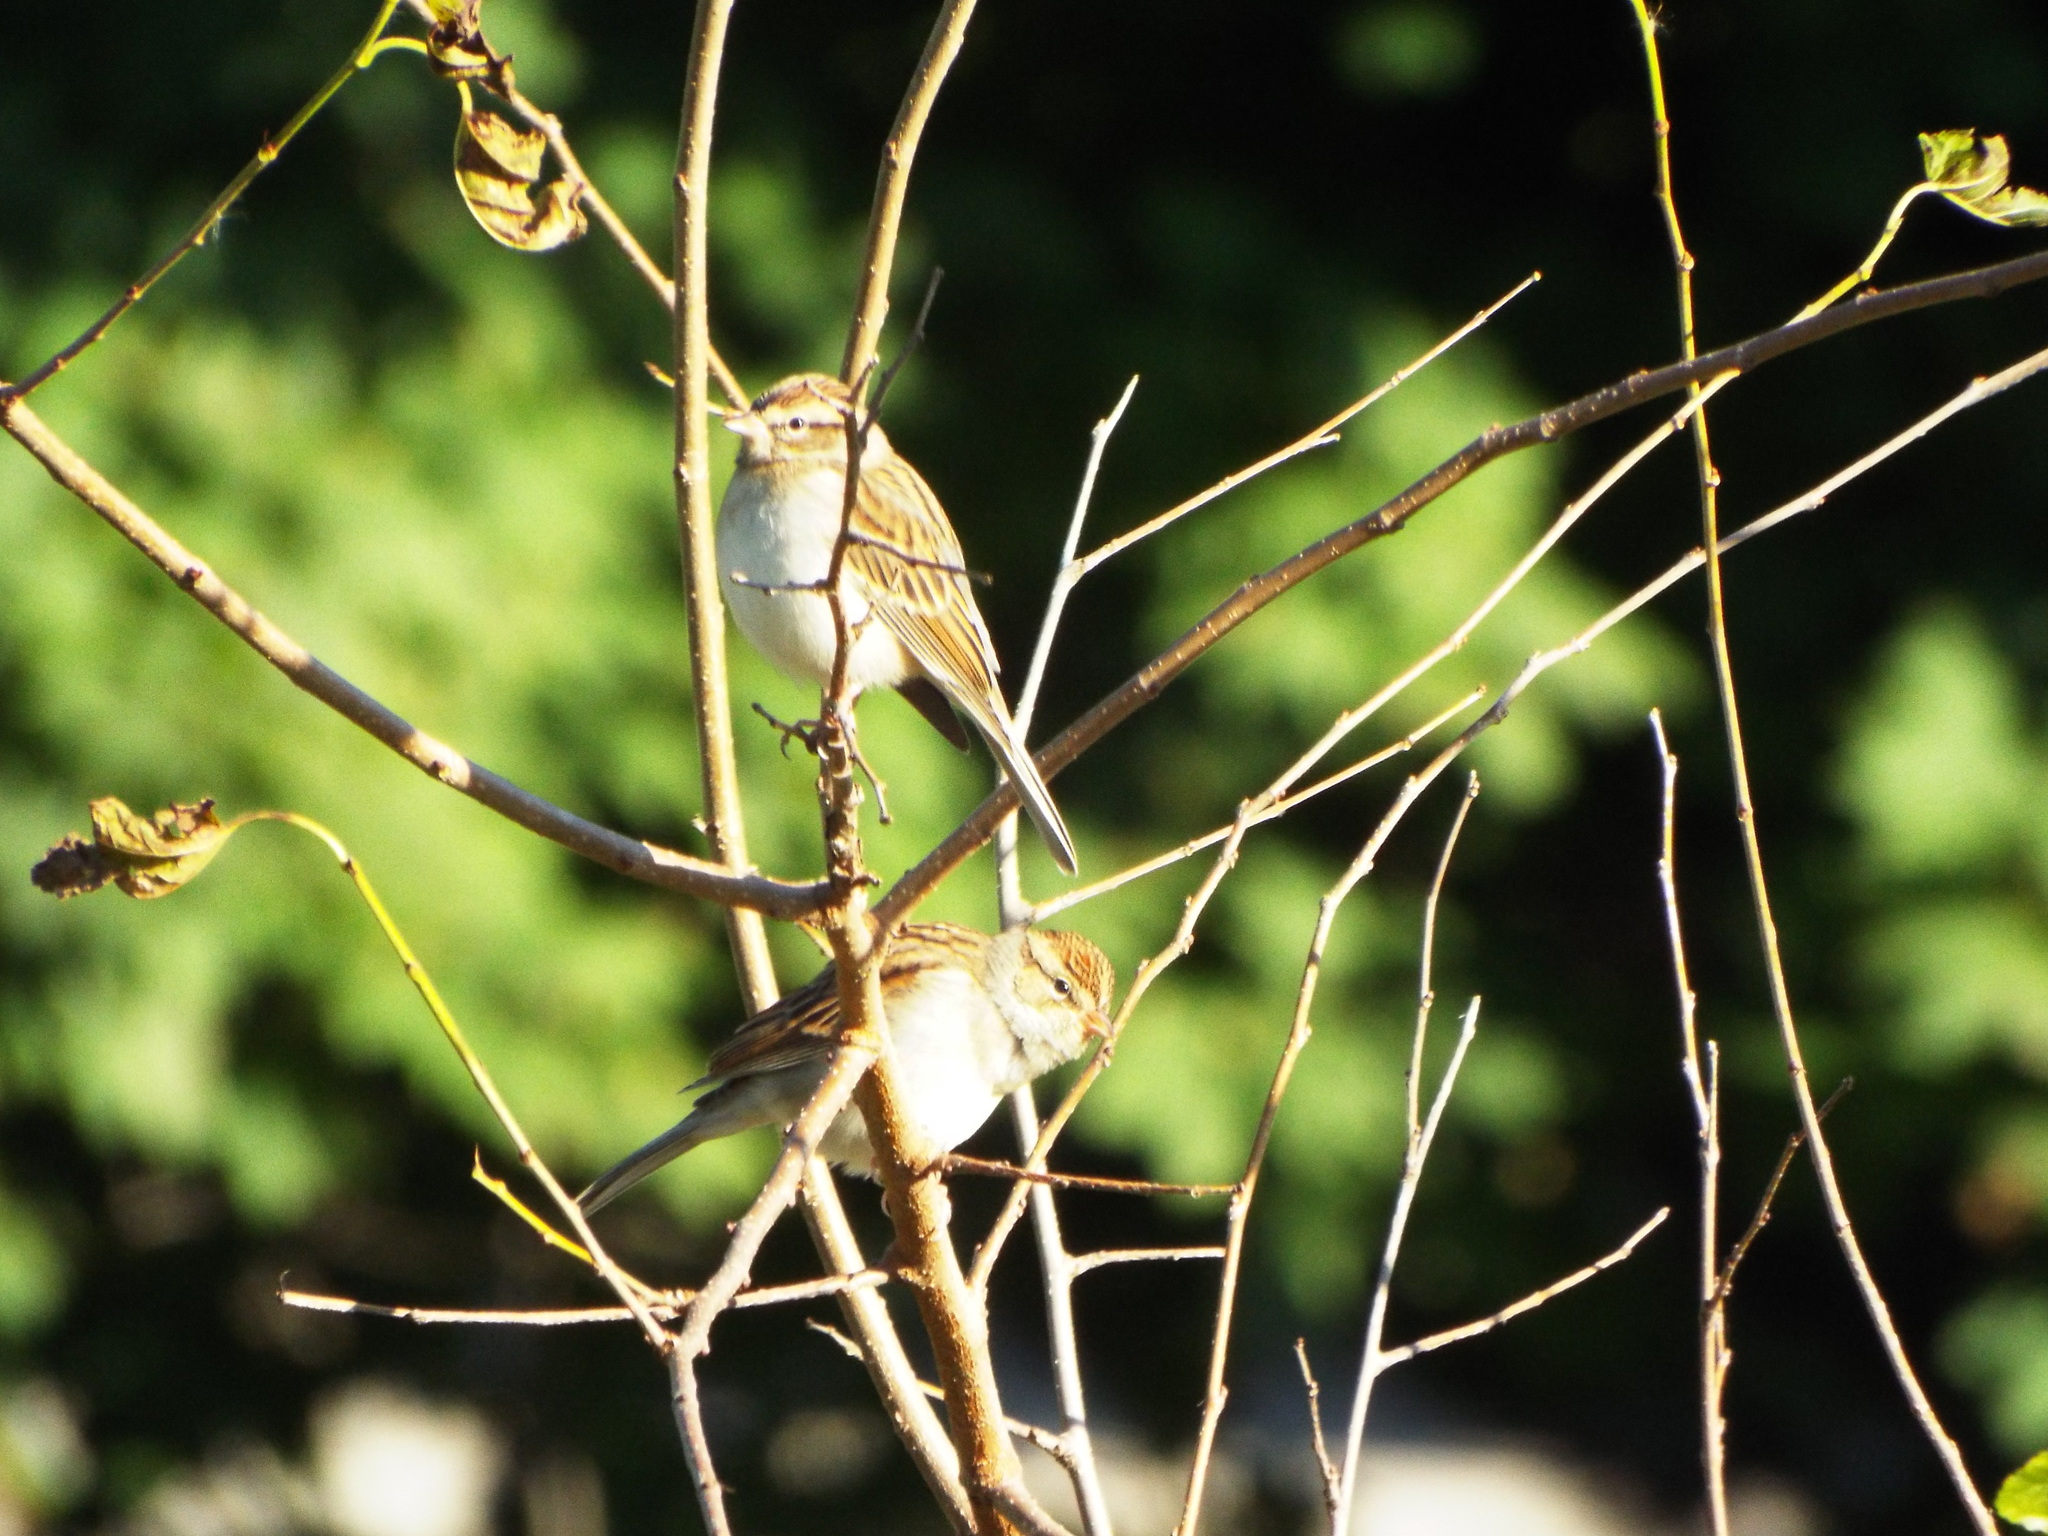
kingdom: Animalia
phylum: Chordata
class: Aves
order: Passeriformes
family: Passerellidae
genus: Spizella
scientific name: Spizella passerina
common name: Chipping sparrow
